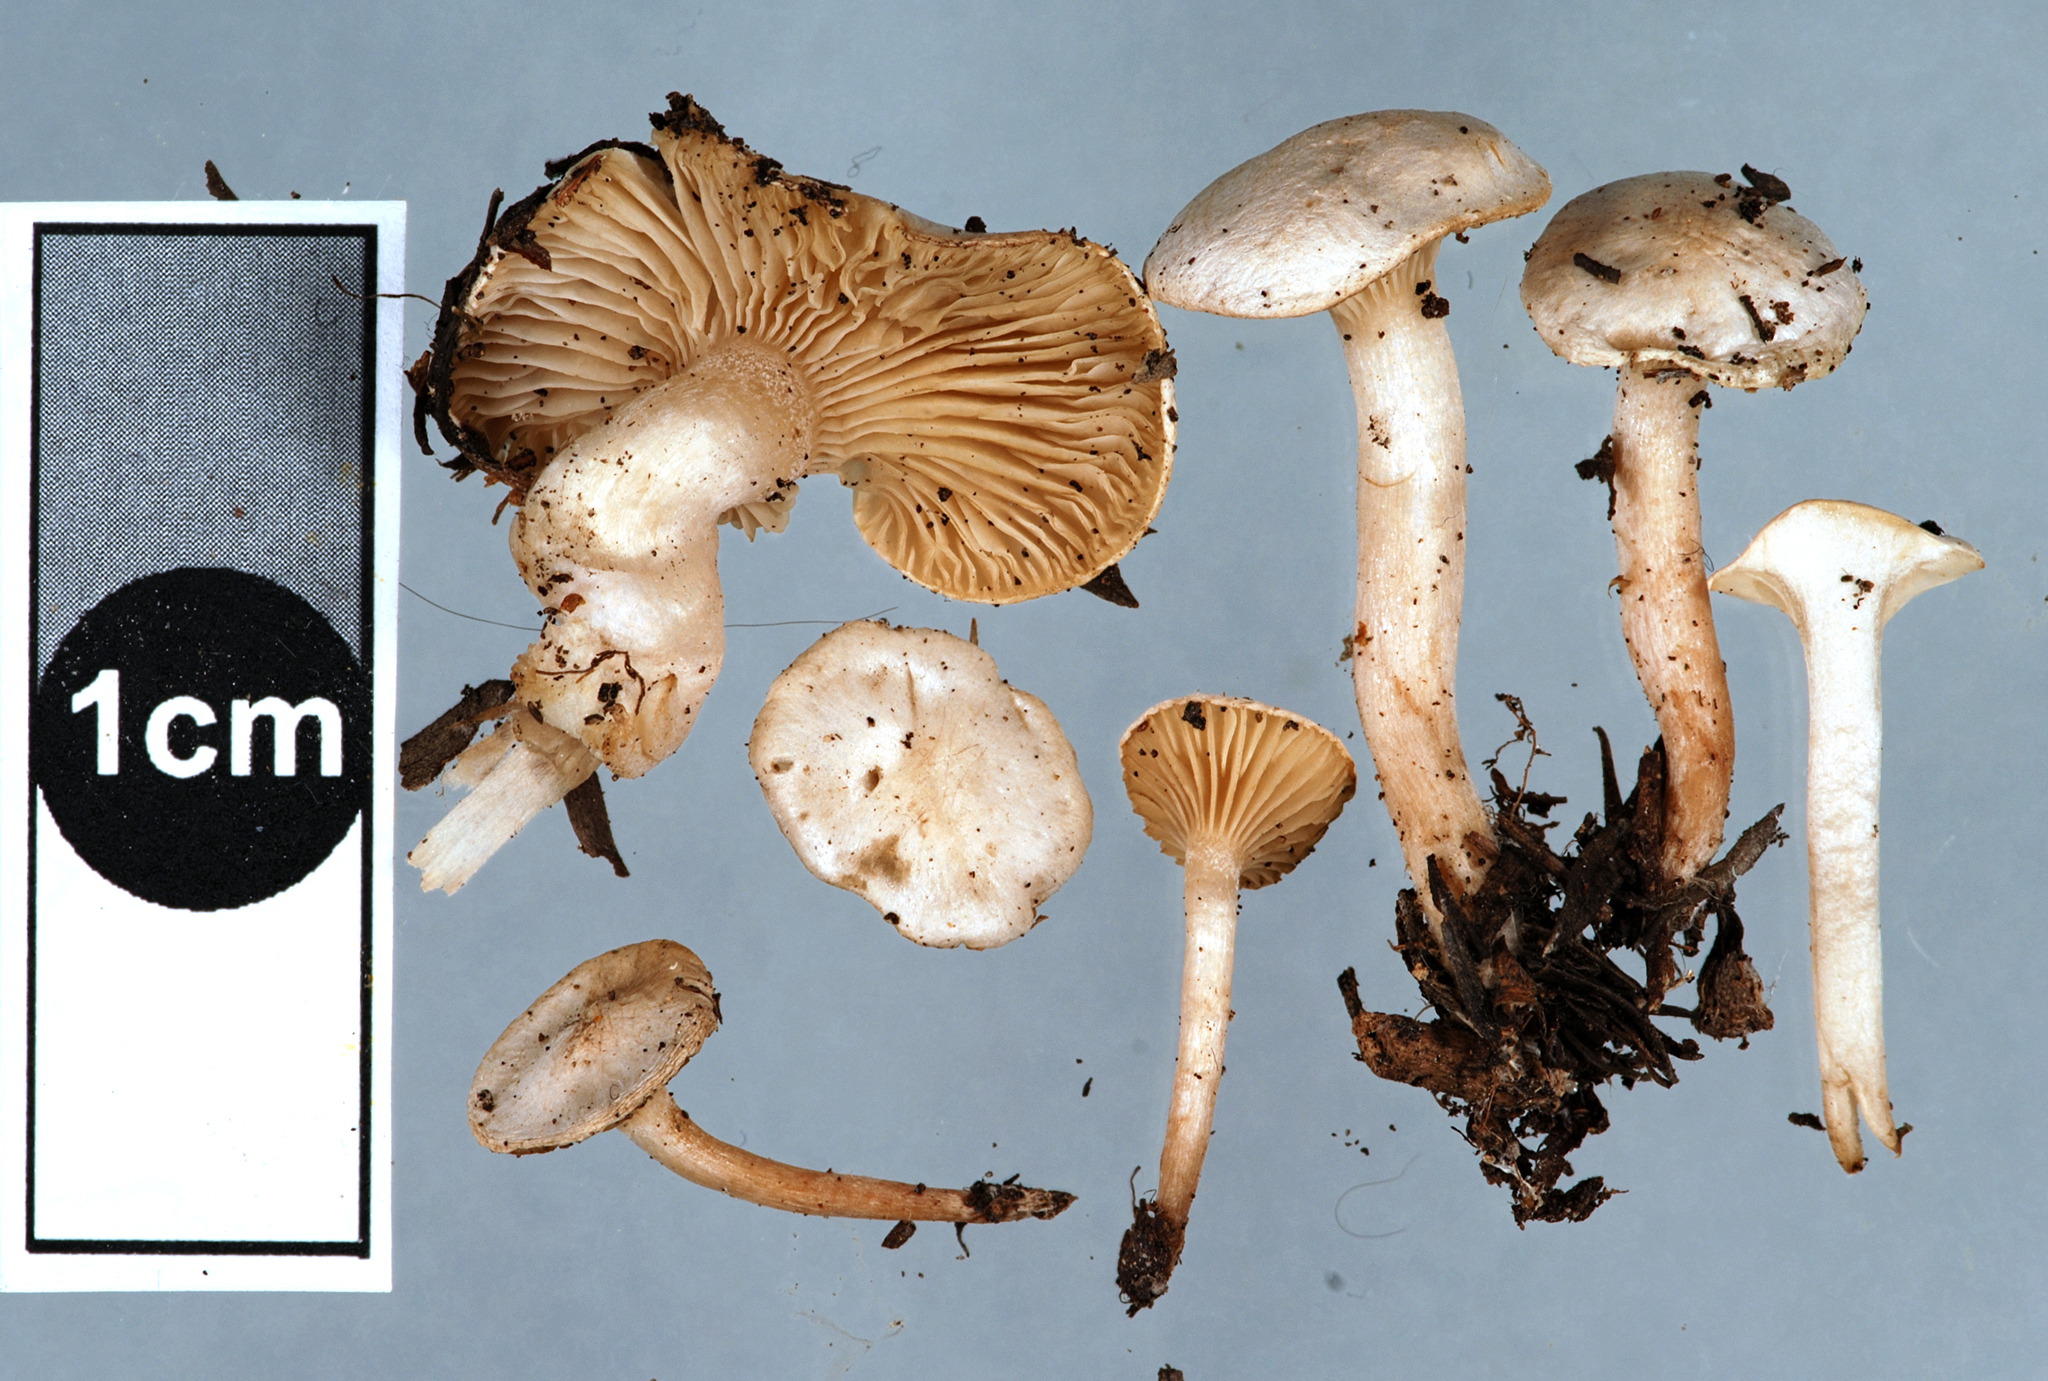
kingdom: Fungi
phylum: Basidiomycota
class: Agaricomycetes
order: Agaricales
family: Tricholomataceae
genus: Ripartites
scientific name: Ripartites
